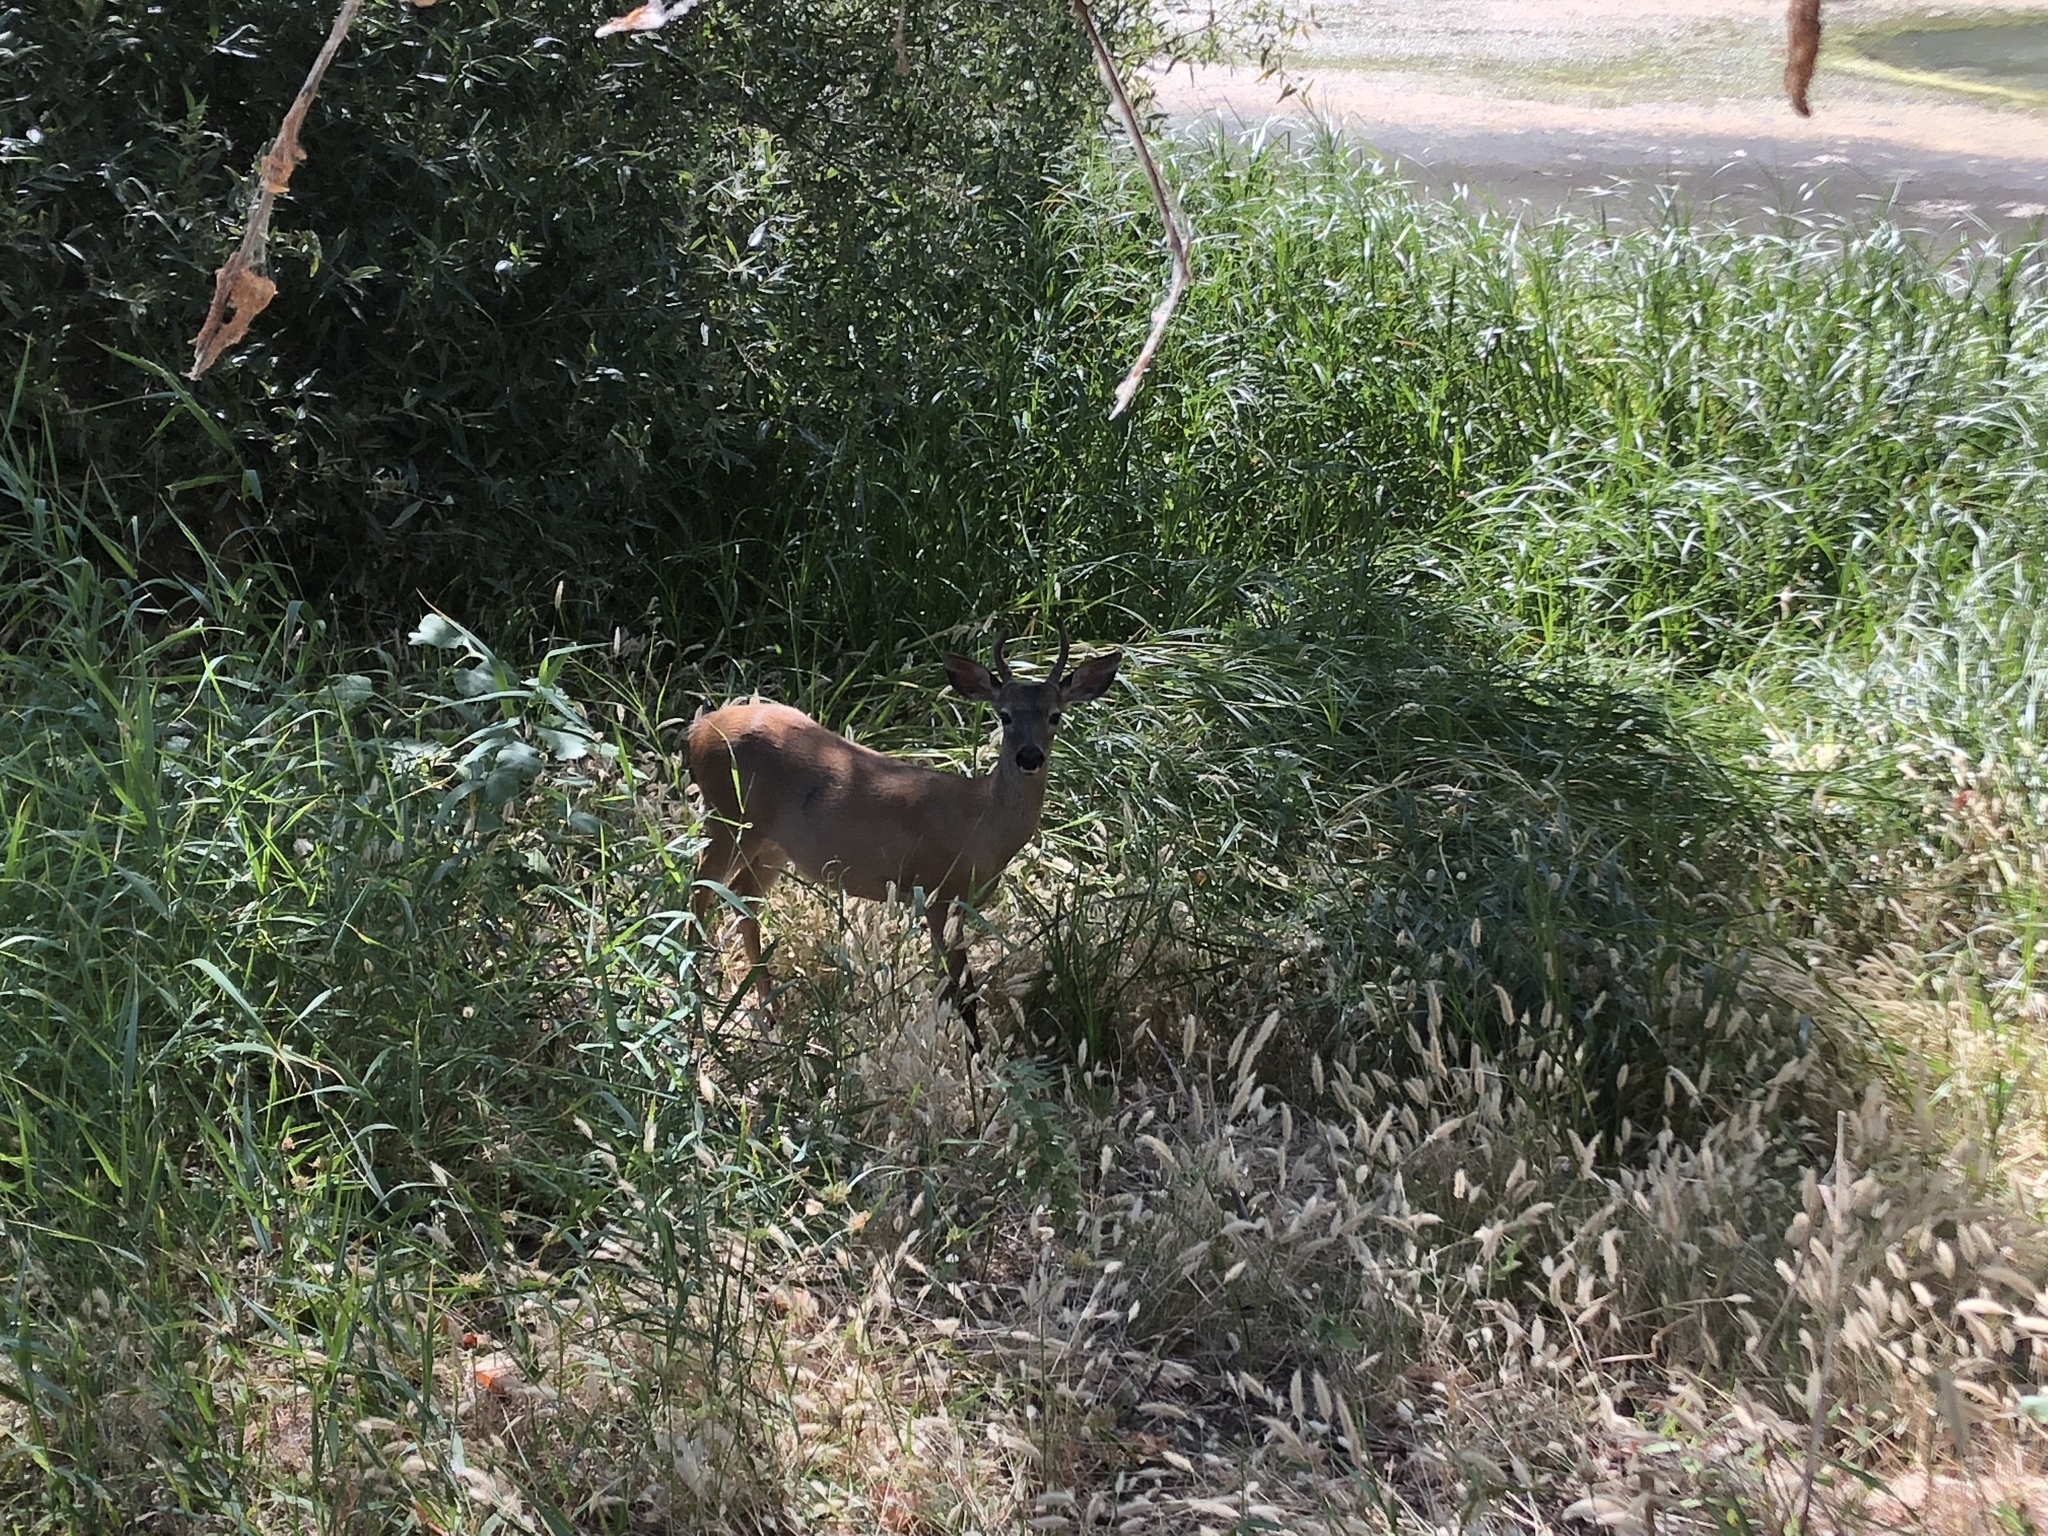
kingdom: Animalia
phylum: Chordata
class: Mammalia
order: Artiodactyla
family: Cervidae
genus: Odocoileus
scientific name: Odocoileus hemionus
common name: Mule deer
